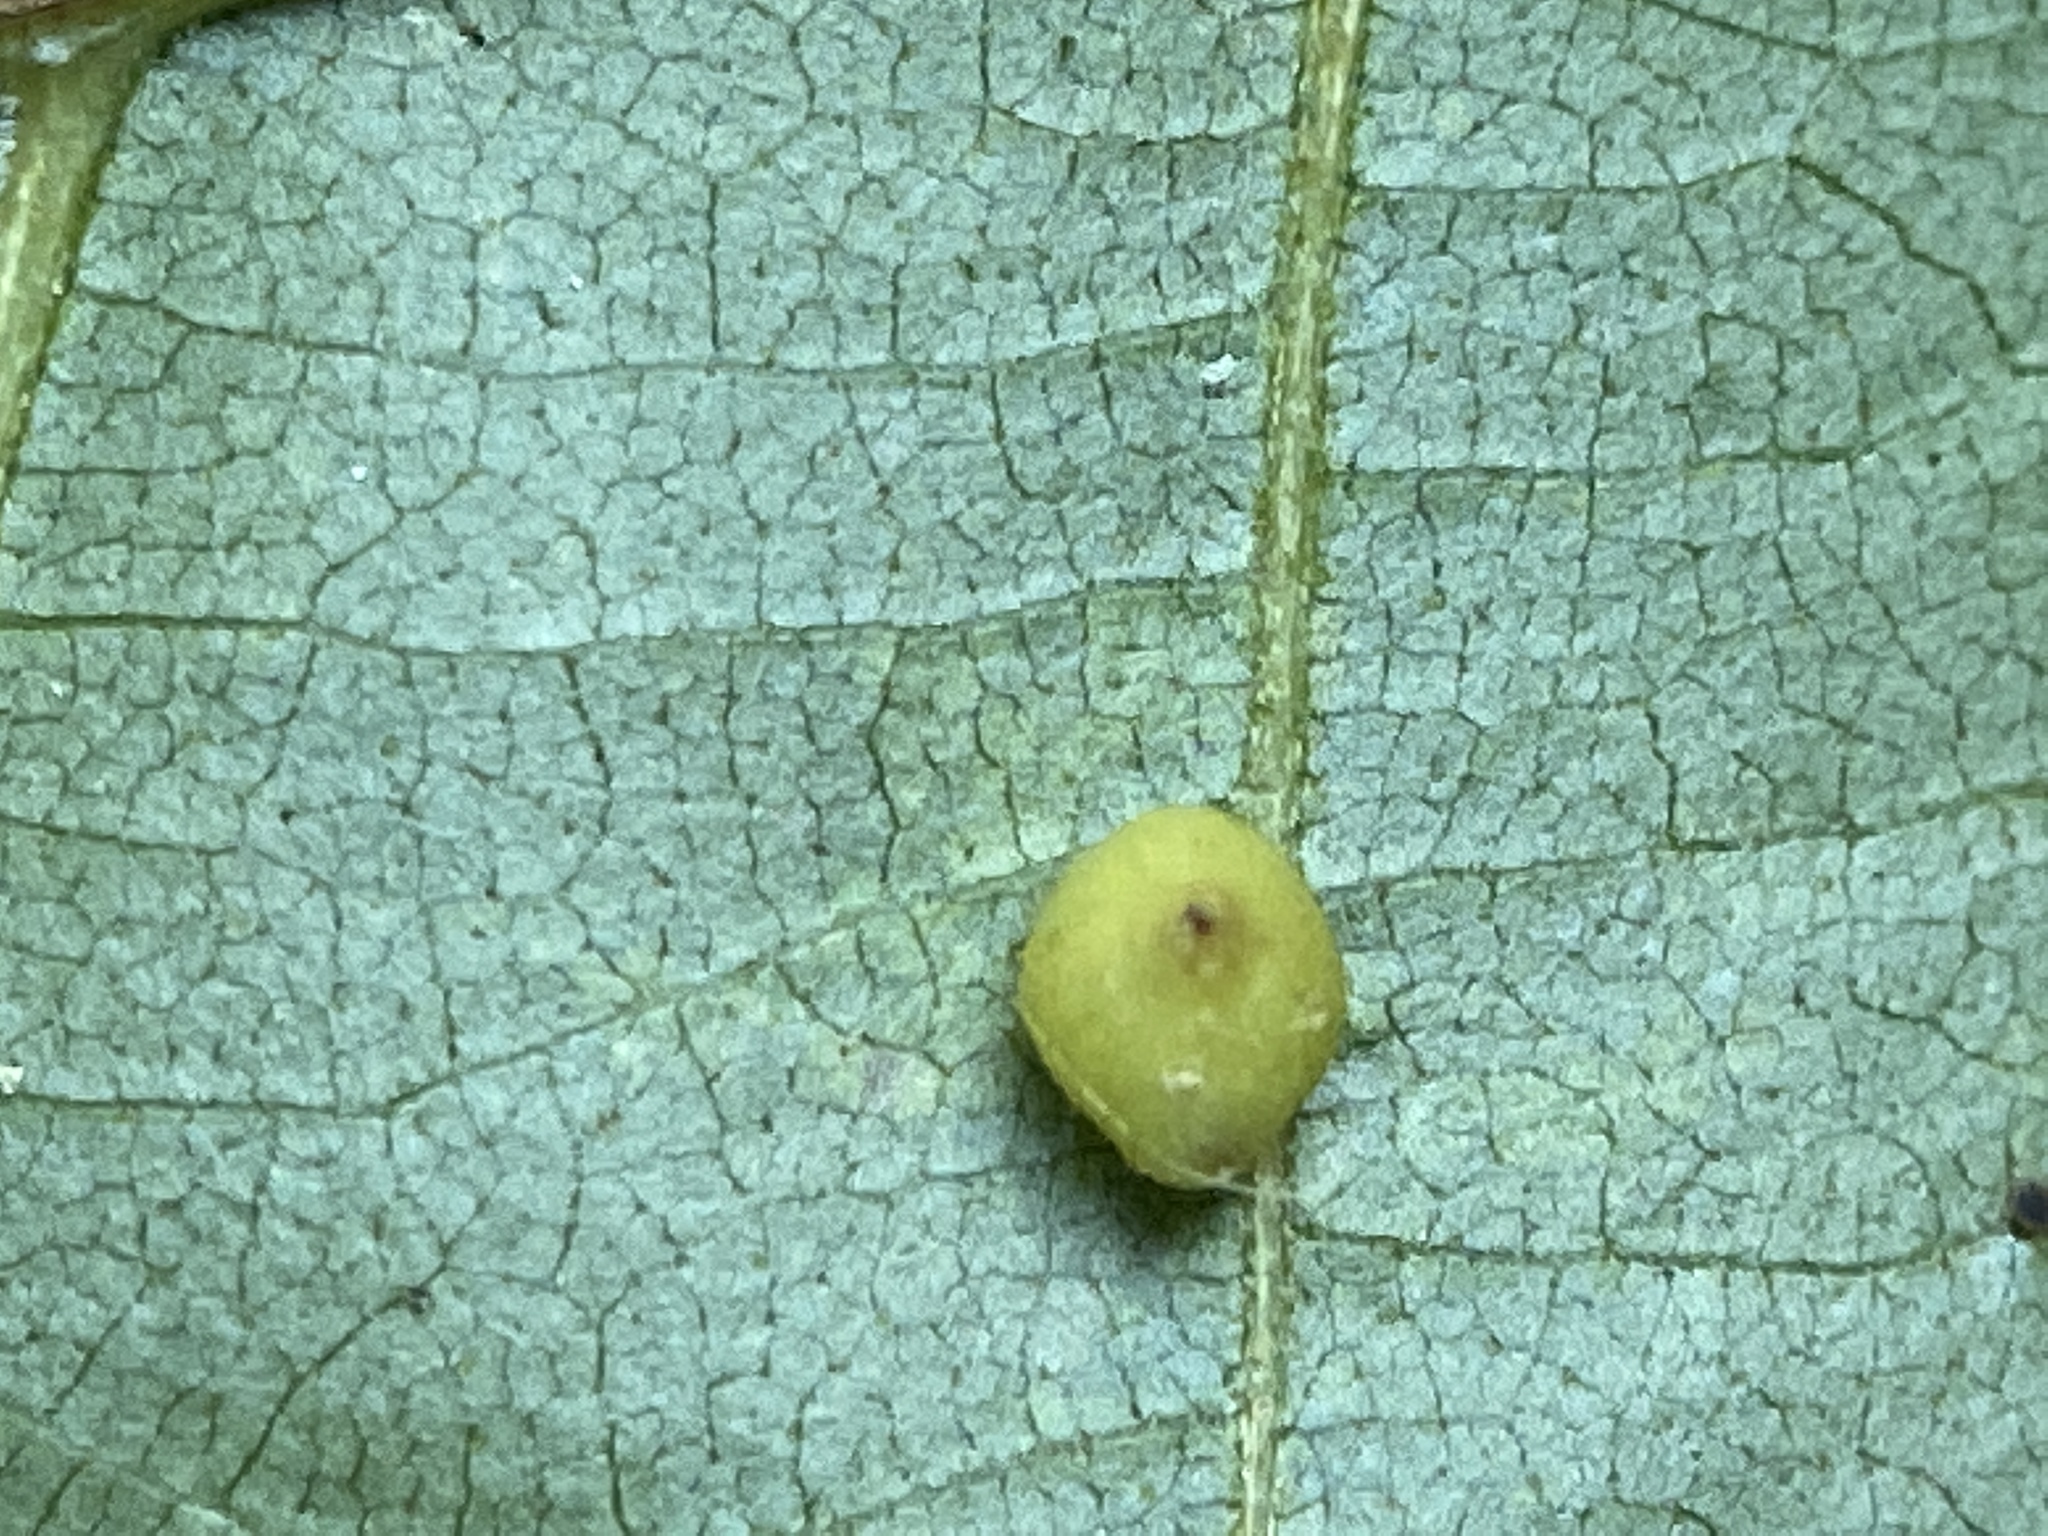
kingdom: Animalia
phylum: Arthropoda
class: Insecta
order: Diptera
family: Cecidomyiidae
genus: Caryomyia
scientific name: Caryomyia caryae
